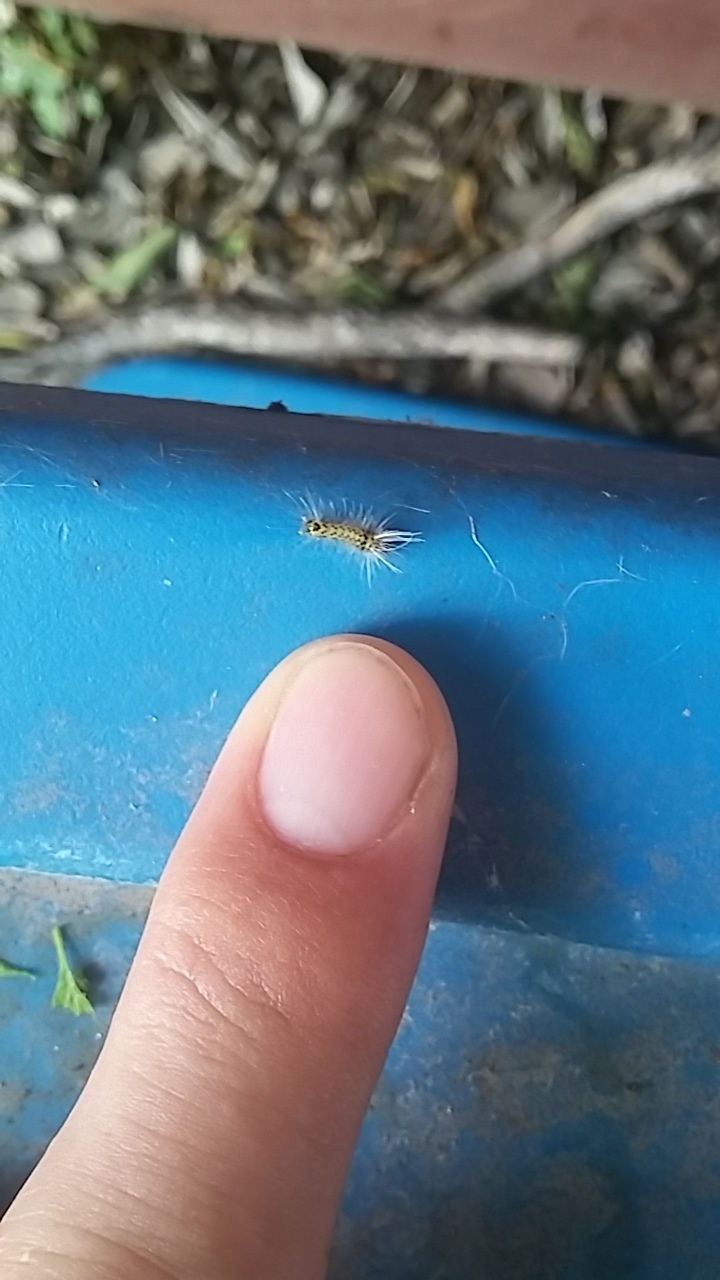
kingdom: Animalia
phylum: Arthropoda
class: Insecta
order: Lepidoptera
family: Erebidae
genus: Halysidota
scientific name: Halysidota schausi
